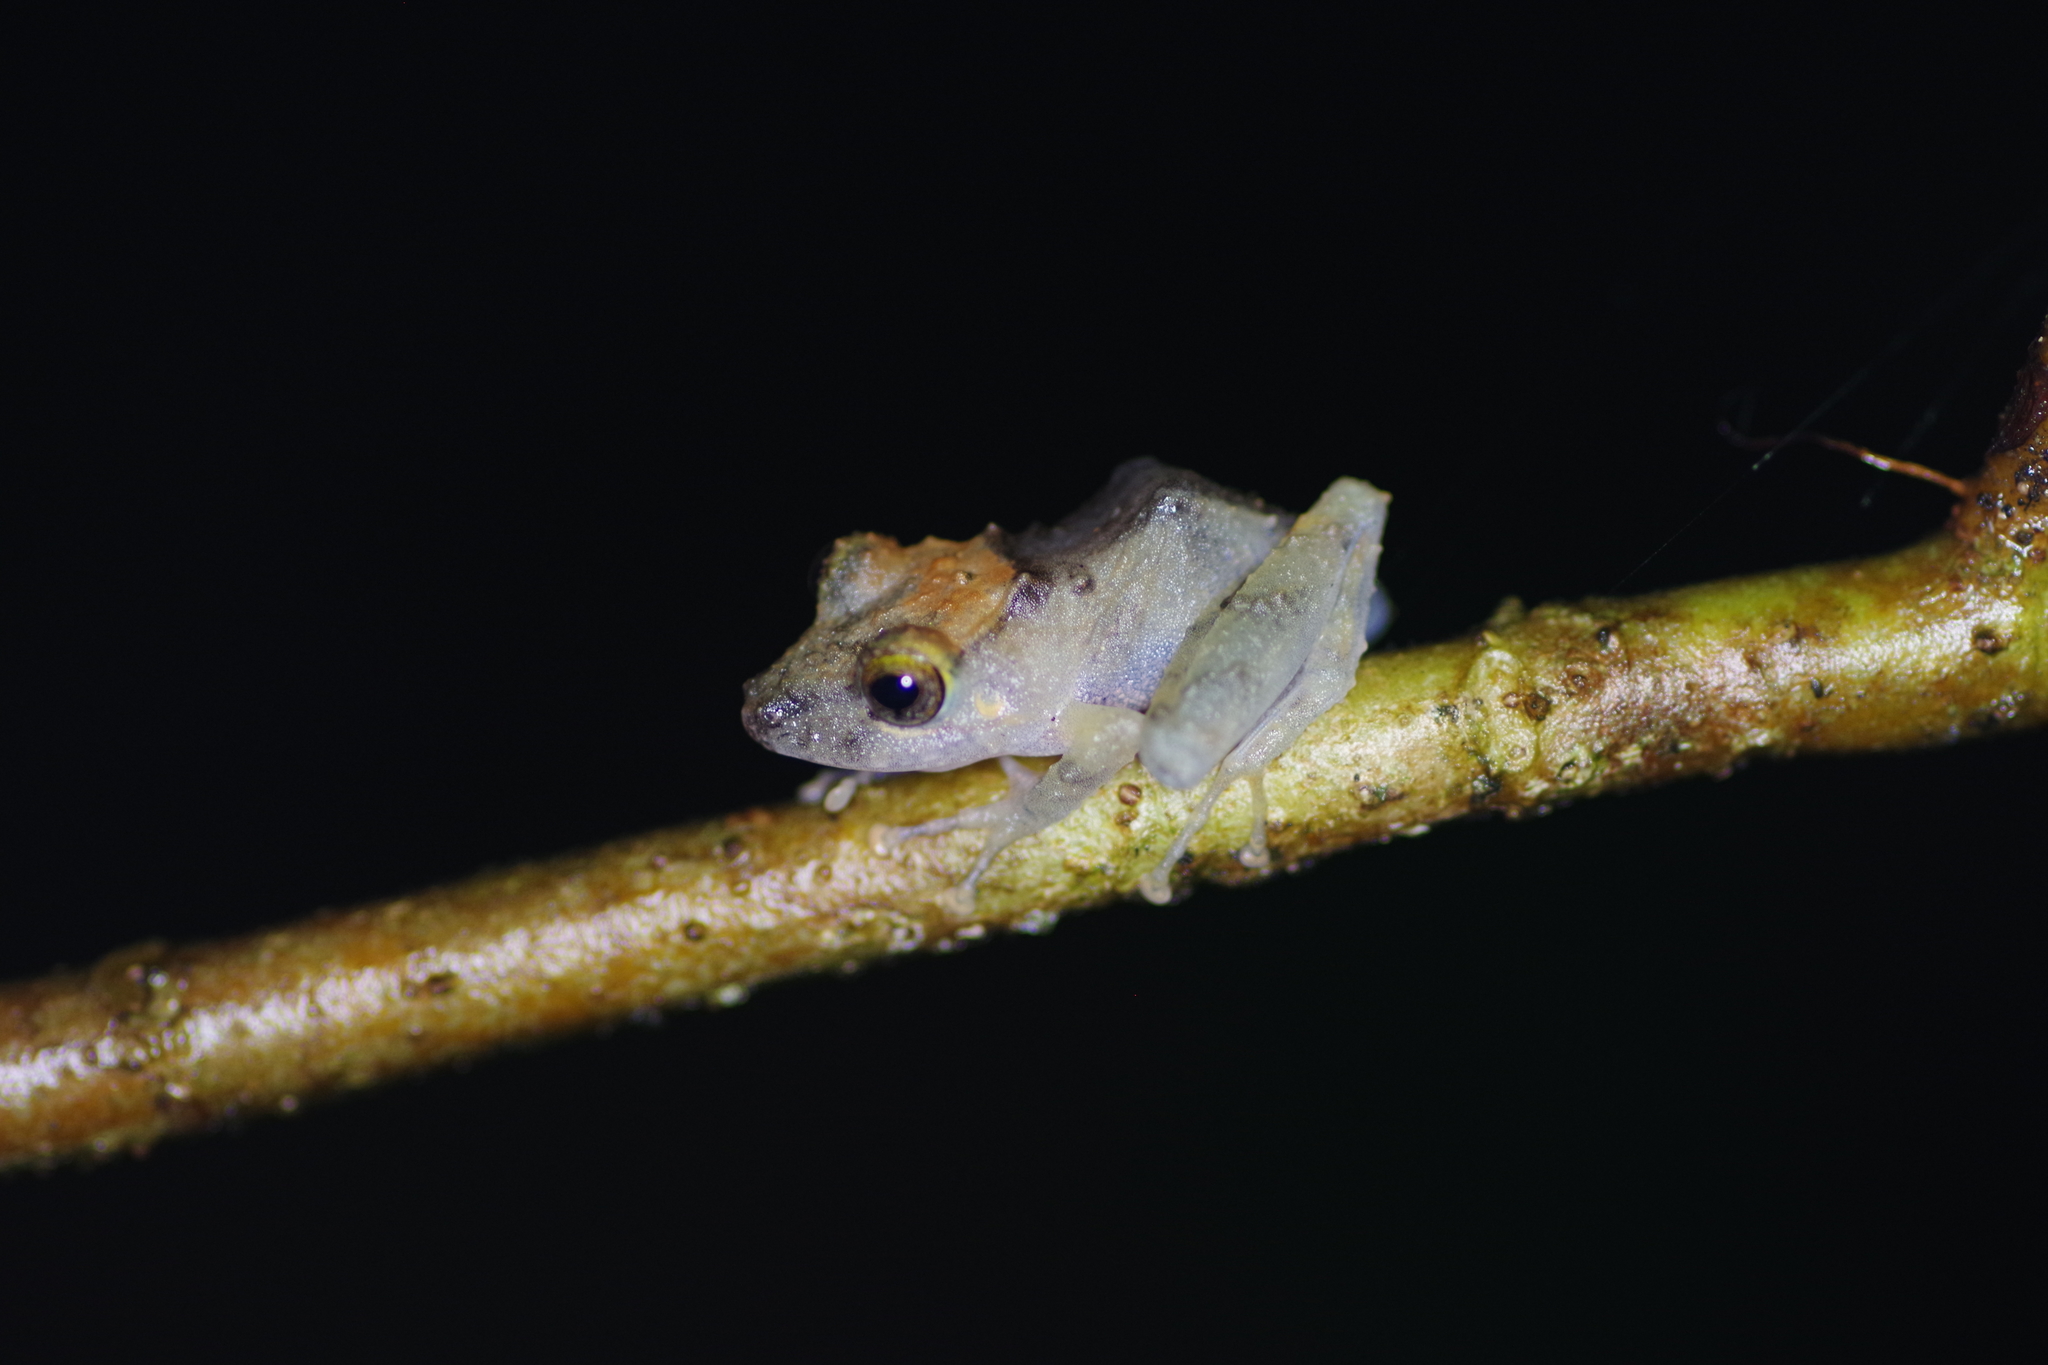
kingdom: Animalia
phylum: Chordata
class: Amphibia
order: Anura
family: Craugastoridae
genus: Pristimantis
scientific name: Pristimantis cerasinus
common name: Limon robber frog
